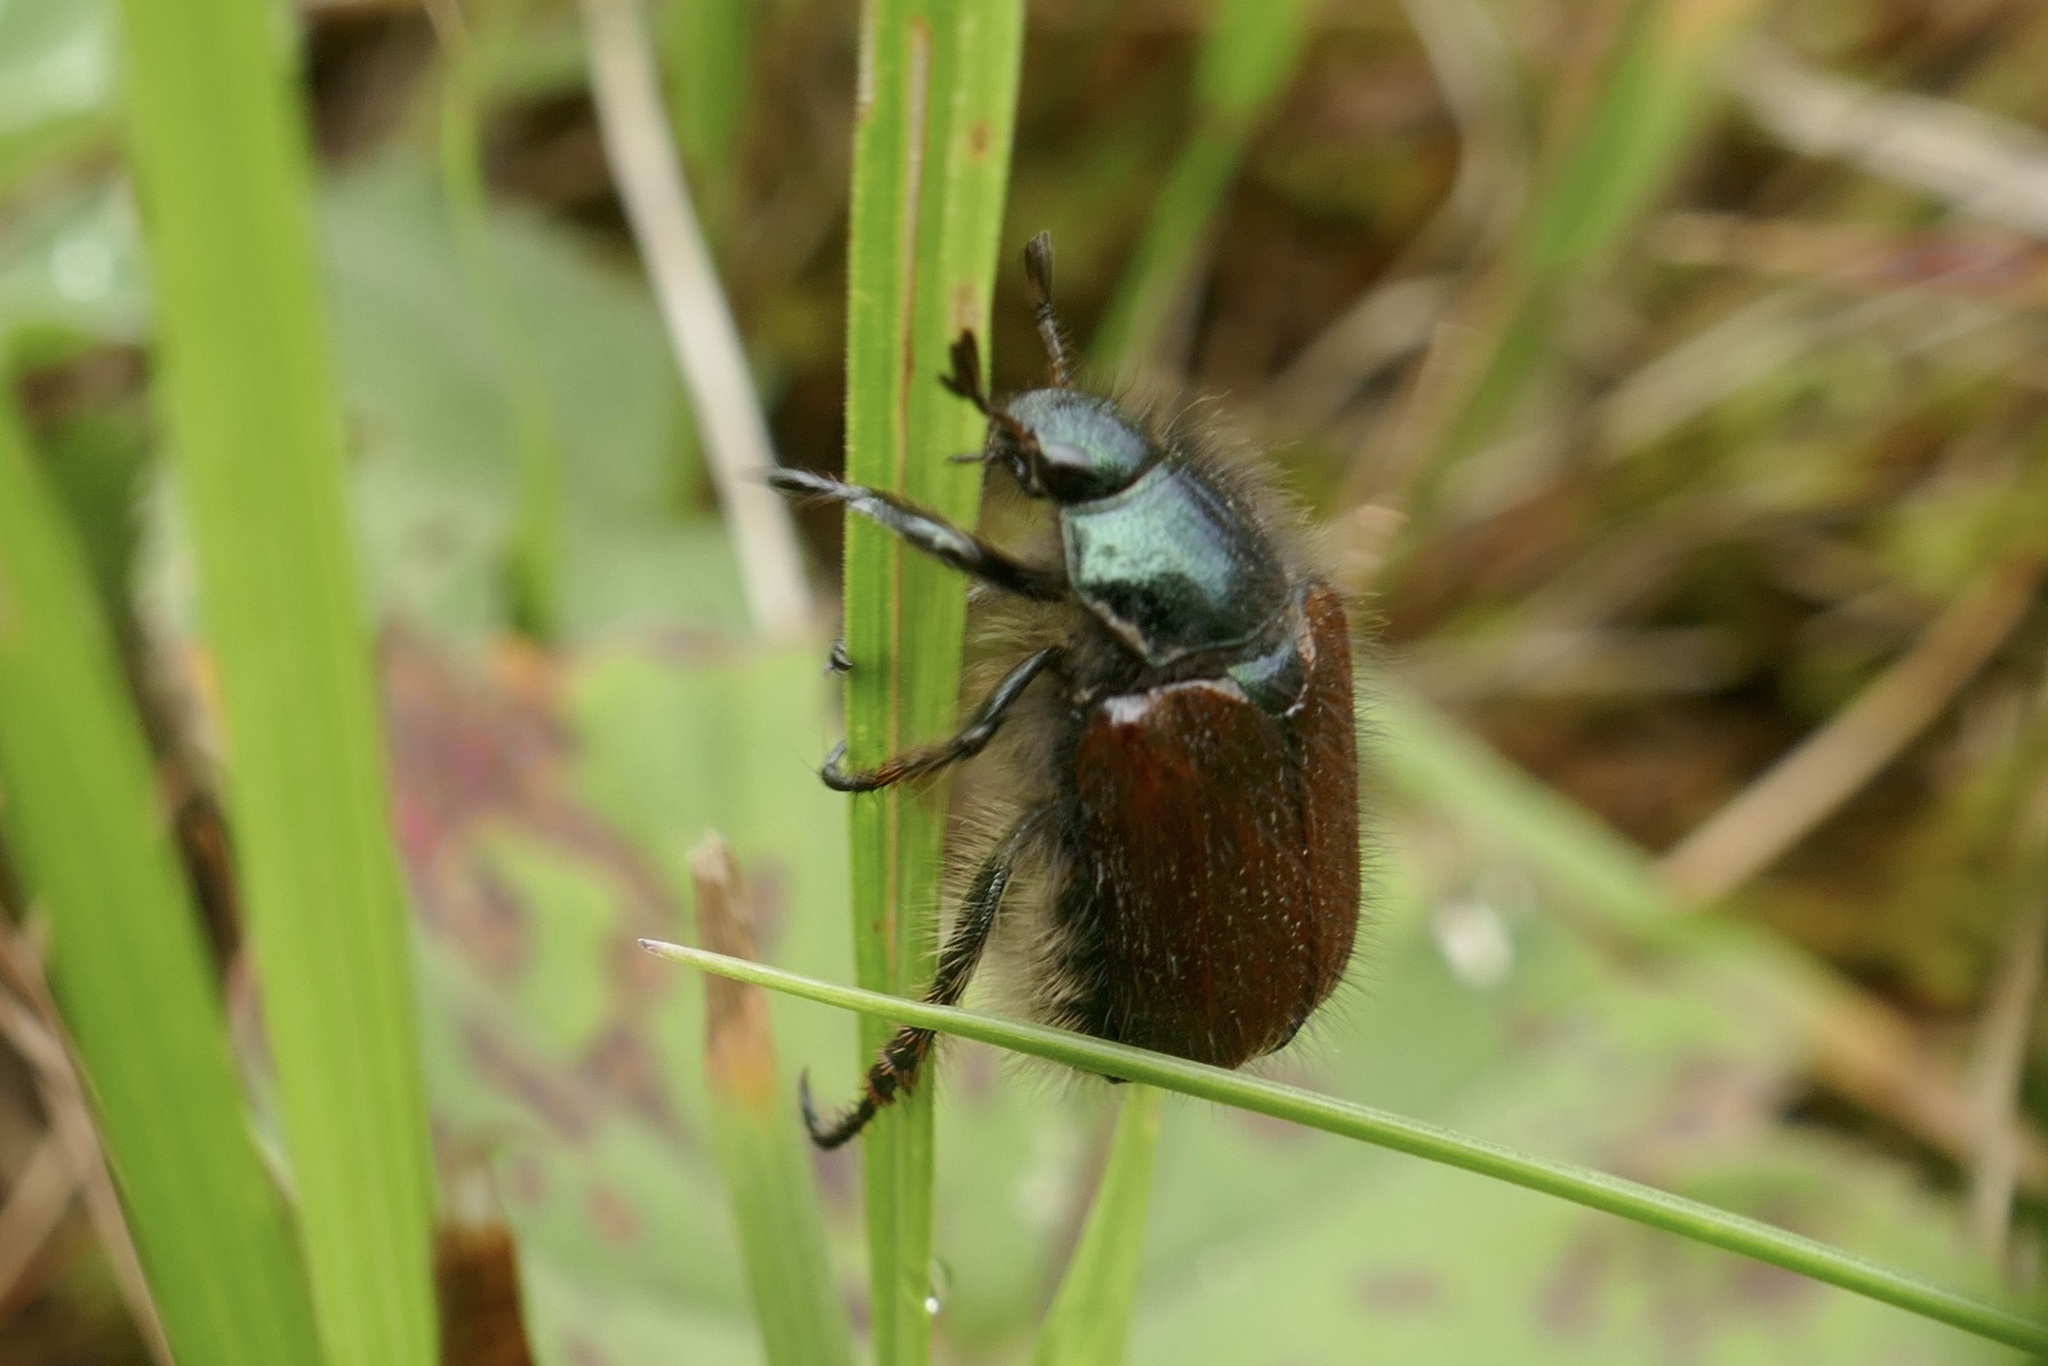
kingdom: Animalia
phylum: Arthropoda
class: Insecta
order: Coleoptera
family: Scarabaeidae
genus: Phyllopertha
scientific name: Phyllopertha horticola
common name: Garden chafer
